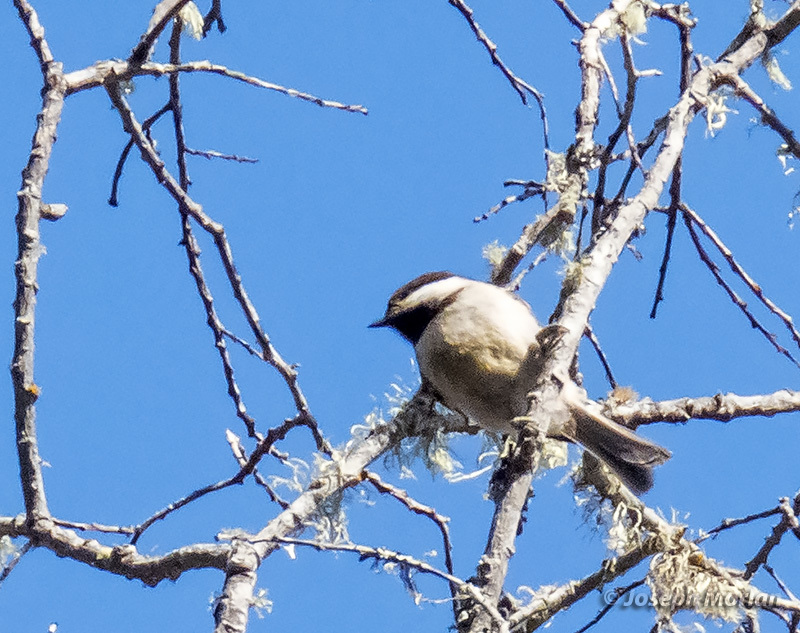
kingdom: Animalia
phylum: Chordata
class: Aves
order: Passeriformes
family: Paridae
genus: Poecile
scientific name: Poecile rufescens
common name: Chestnut-backed chickadee
